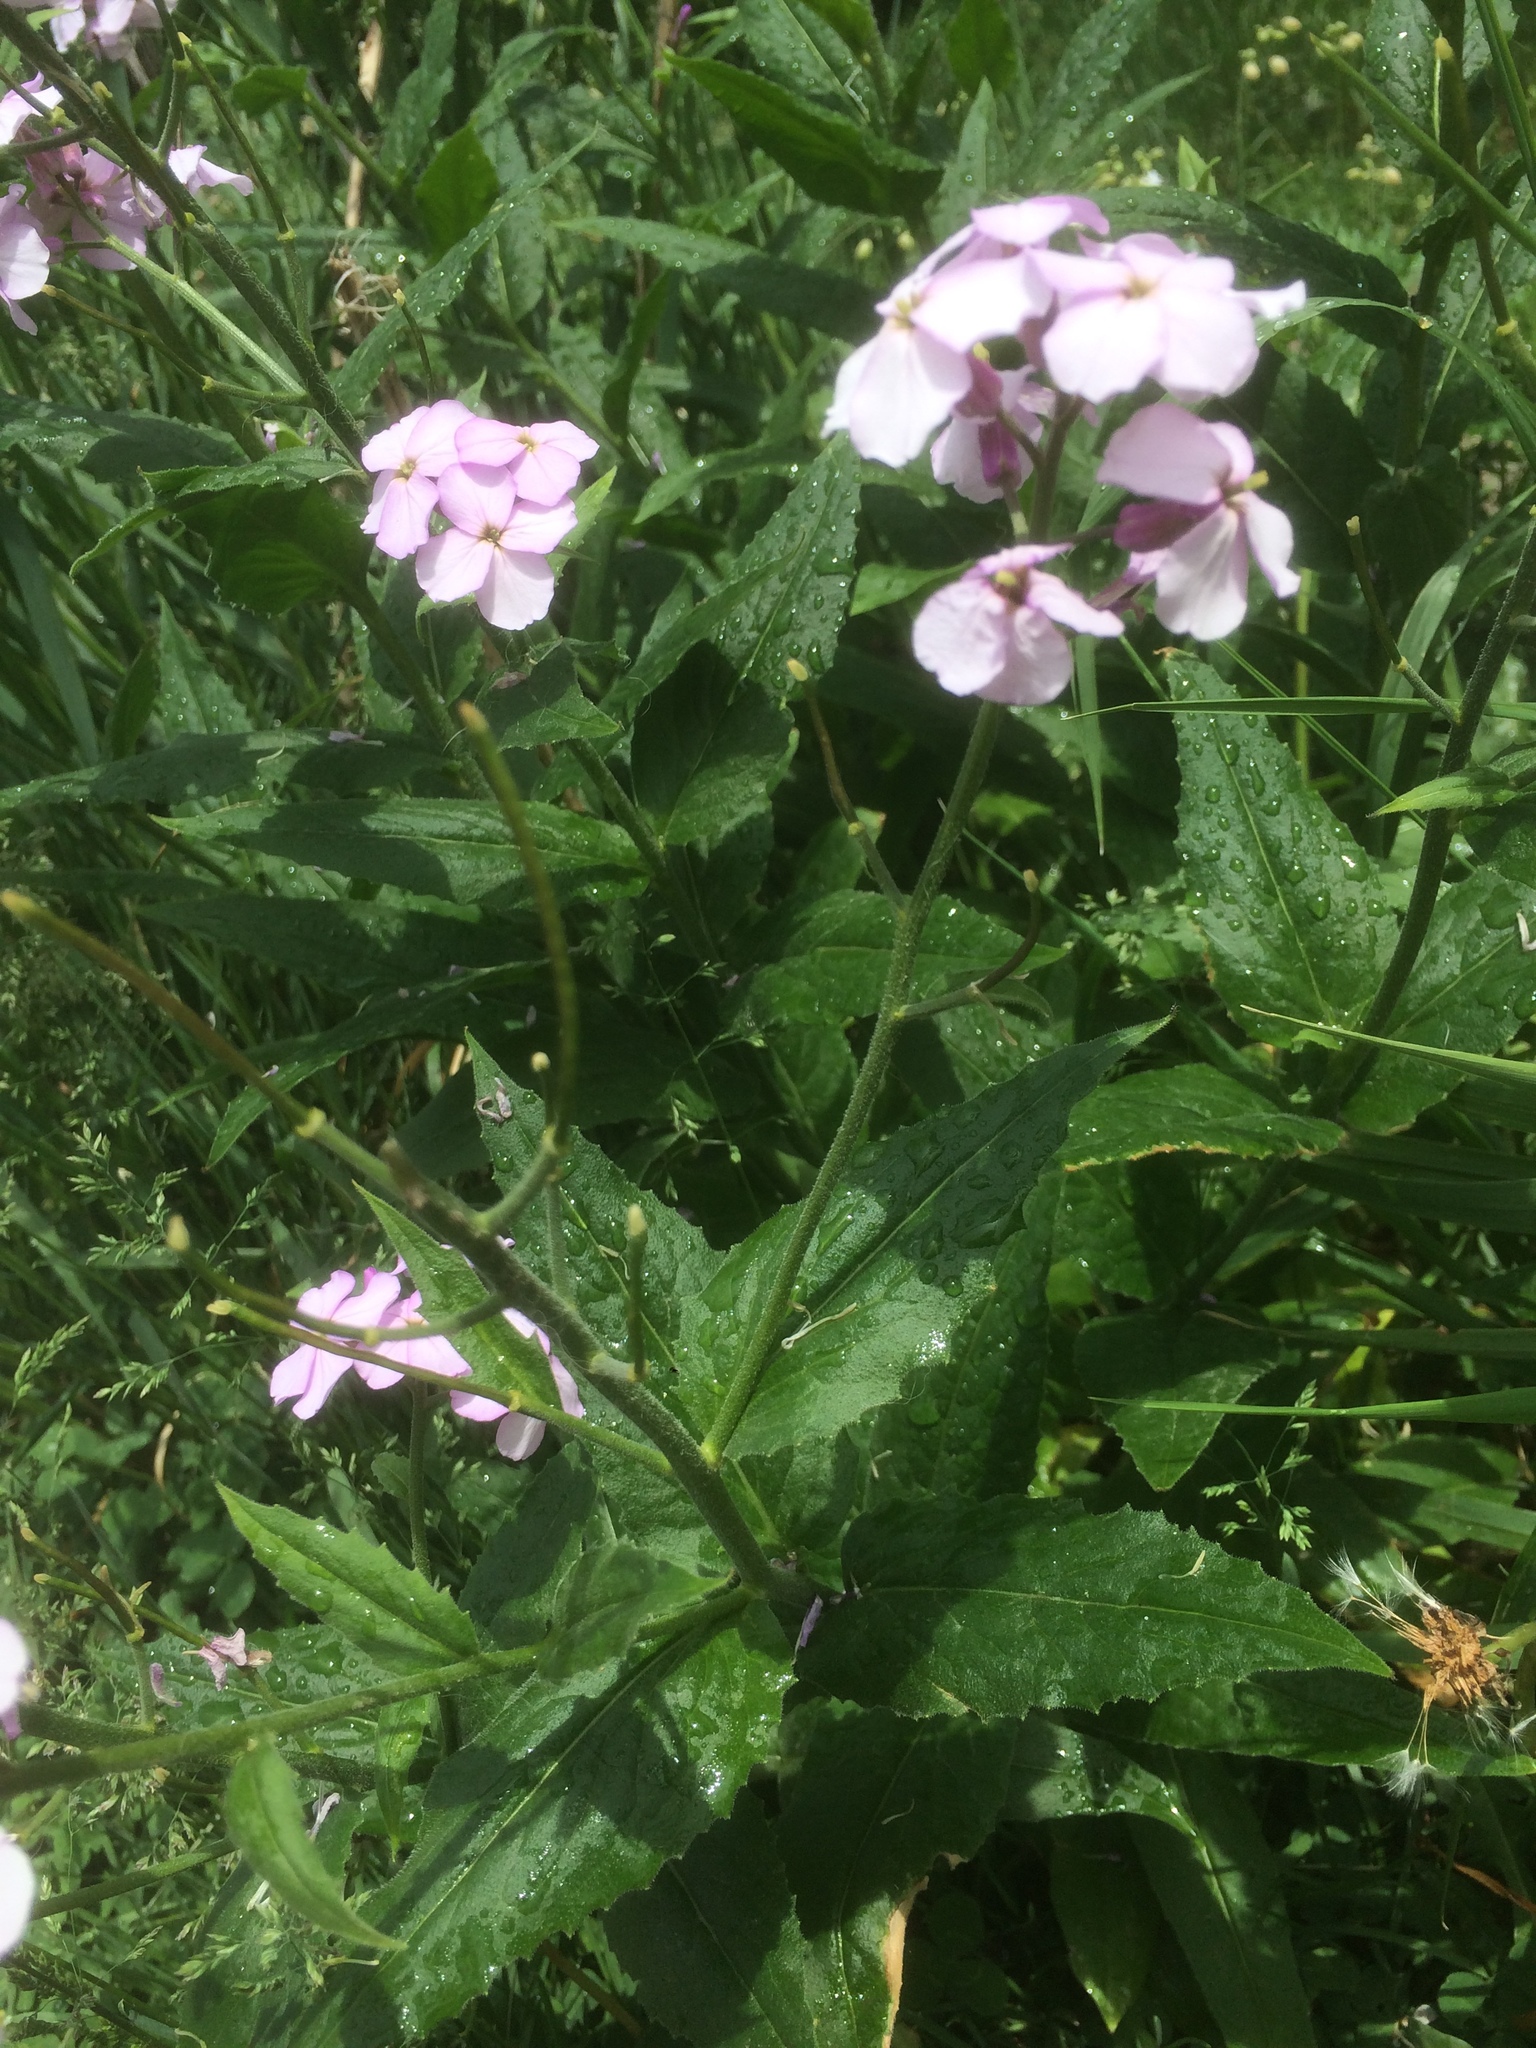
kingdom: Plantae
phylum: Tracheophyta
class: Magnoliopsida
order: Brassicales
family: Brassicaceae
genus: Hesperis
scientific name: Hesperis matronalis
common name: Dame's-violet
